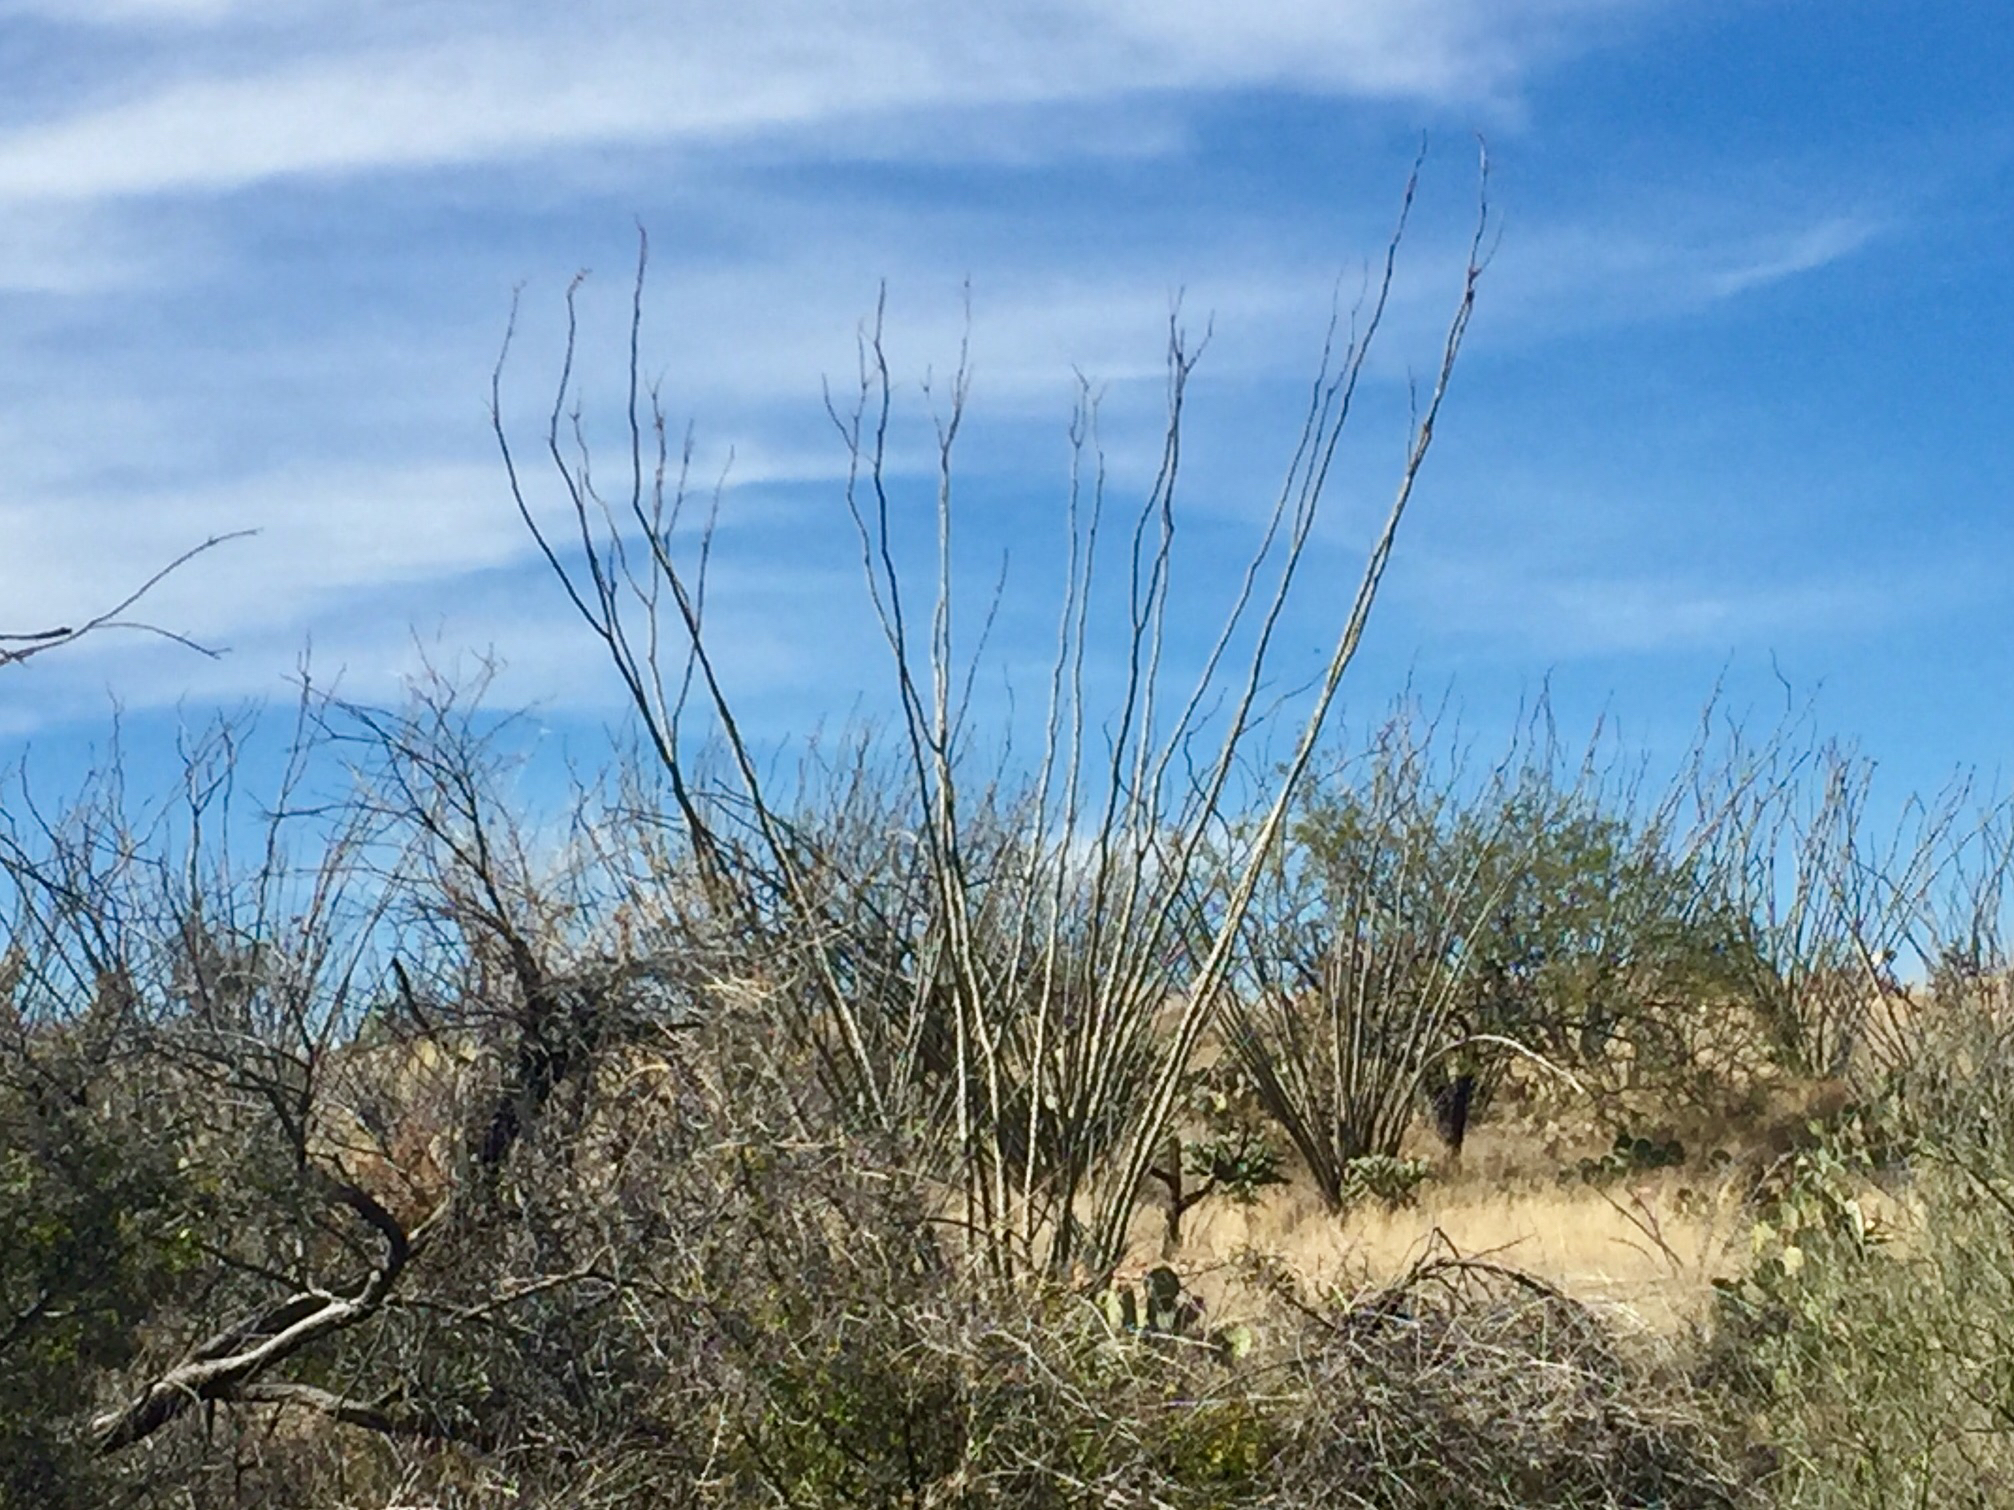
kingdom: Plantae
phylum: Tracheophyta
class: Magnoliopsida
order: Ericales
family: Fouquieriaceae
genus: Fouquieria
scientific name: Fouquieria splendens
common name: Vine-cactus
